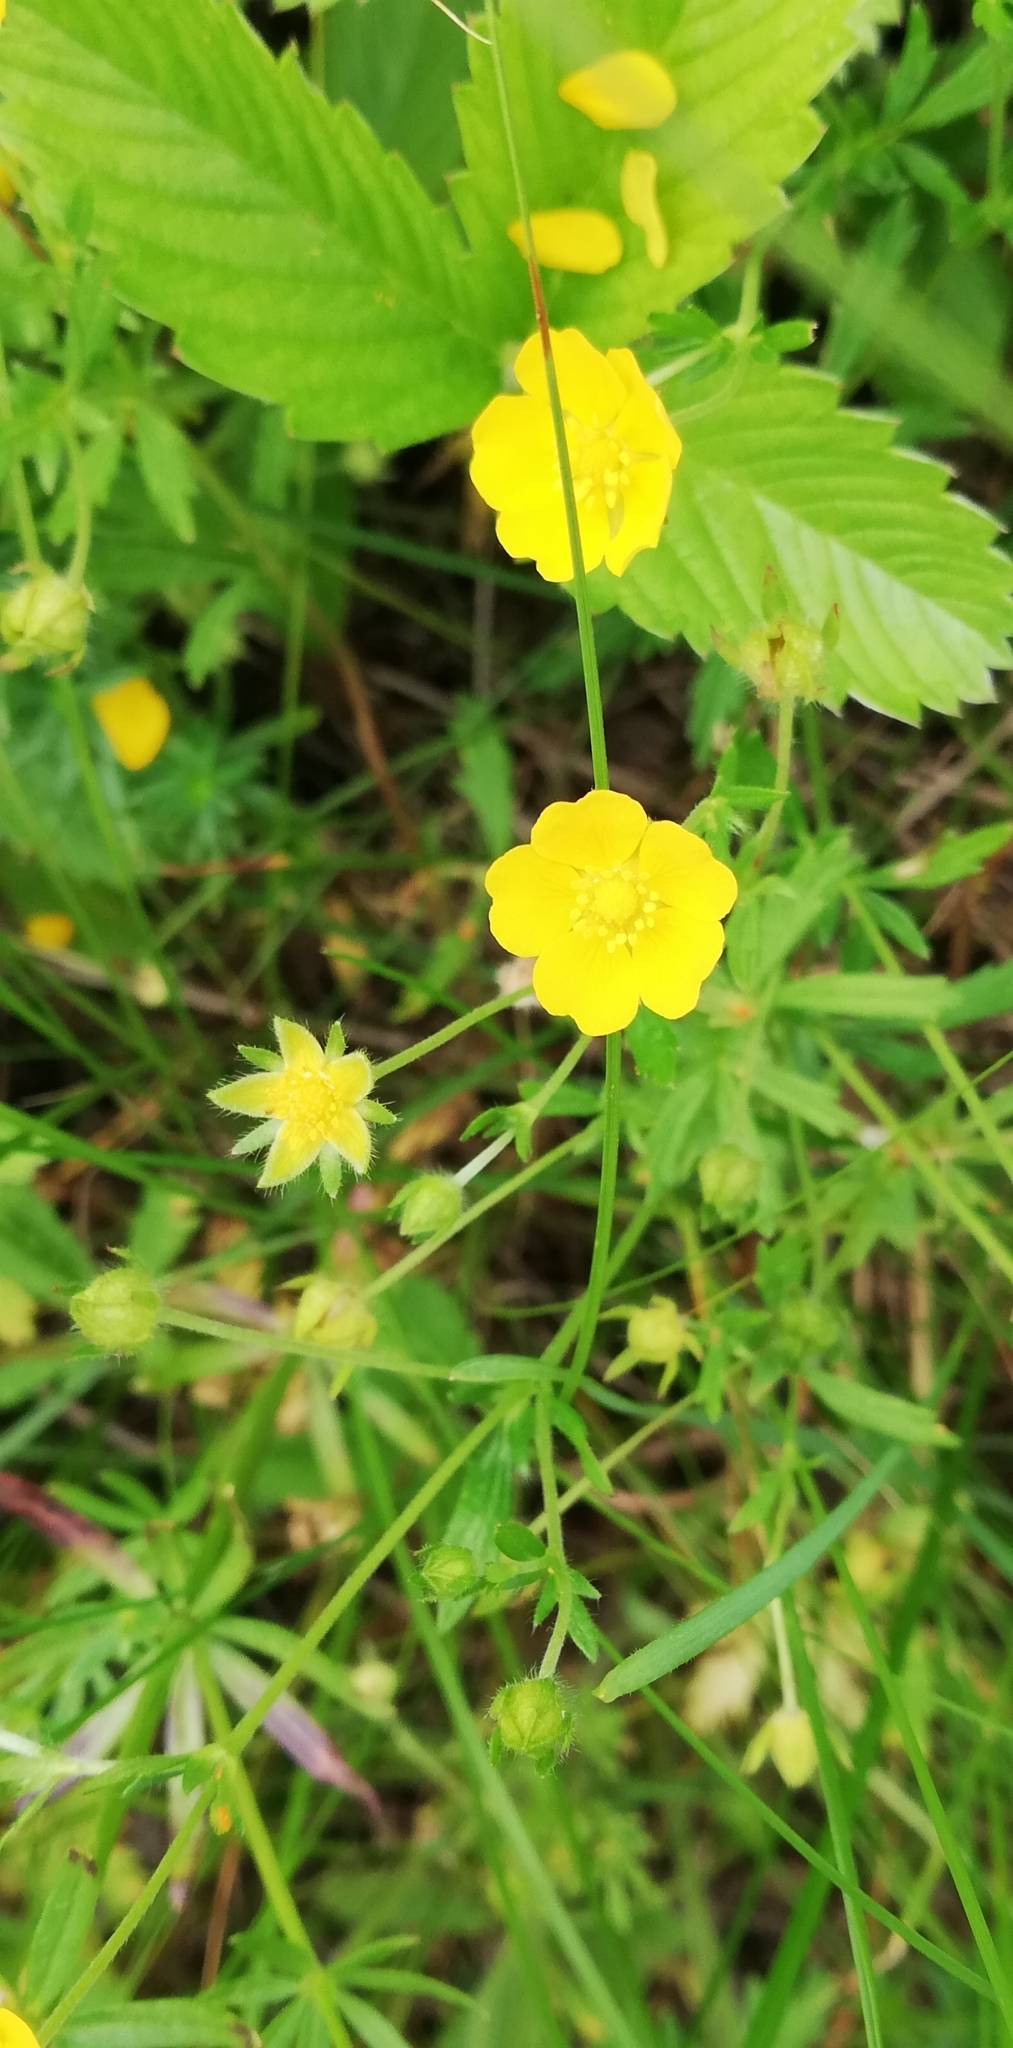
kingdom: Plantae
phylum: Tracheophyta
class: Magnoliopsida
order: Rosales
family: Rosaceae
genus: Potentilla
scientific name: Potentilla thuringiaca
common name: European cinquefoil
